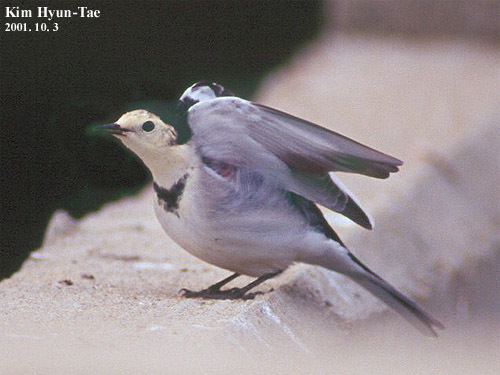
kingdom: Animalia
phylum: Chordata
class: Aves
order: Passeriformes
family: Motacillidae
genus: Motacilla
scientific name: Motacilla alba
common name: White wagtail
